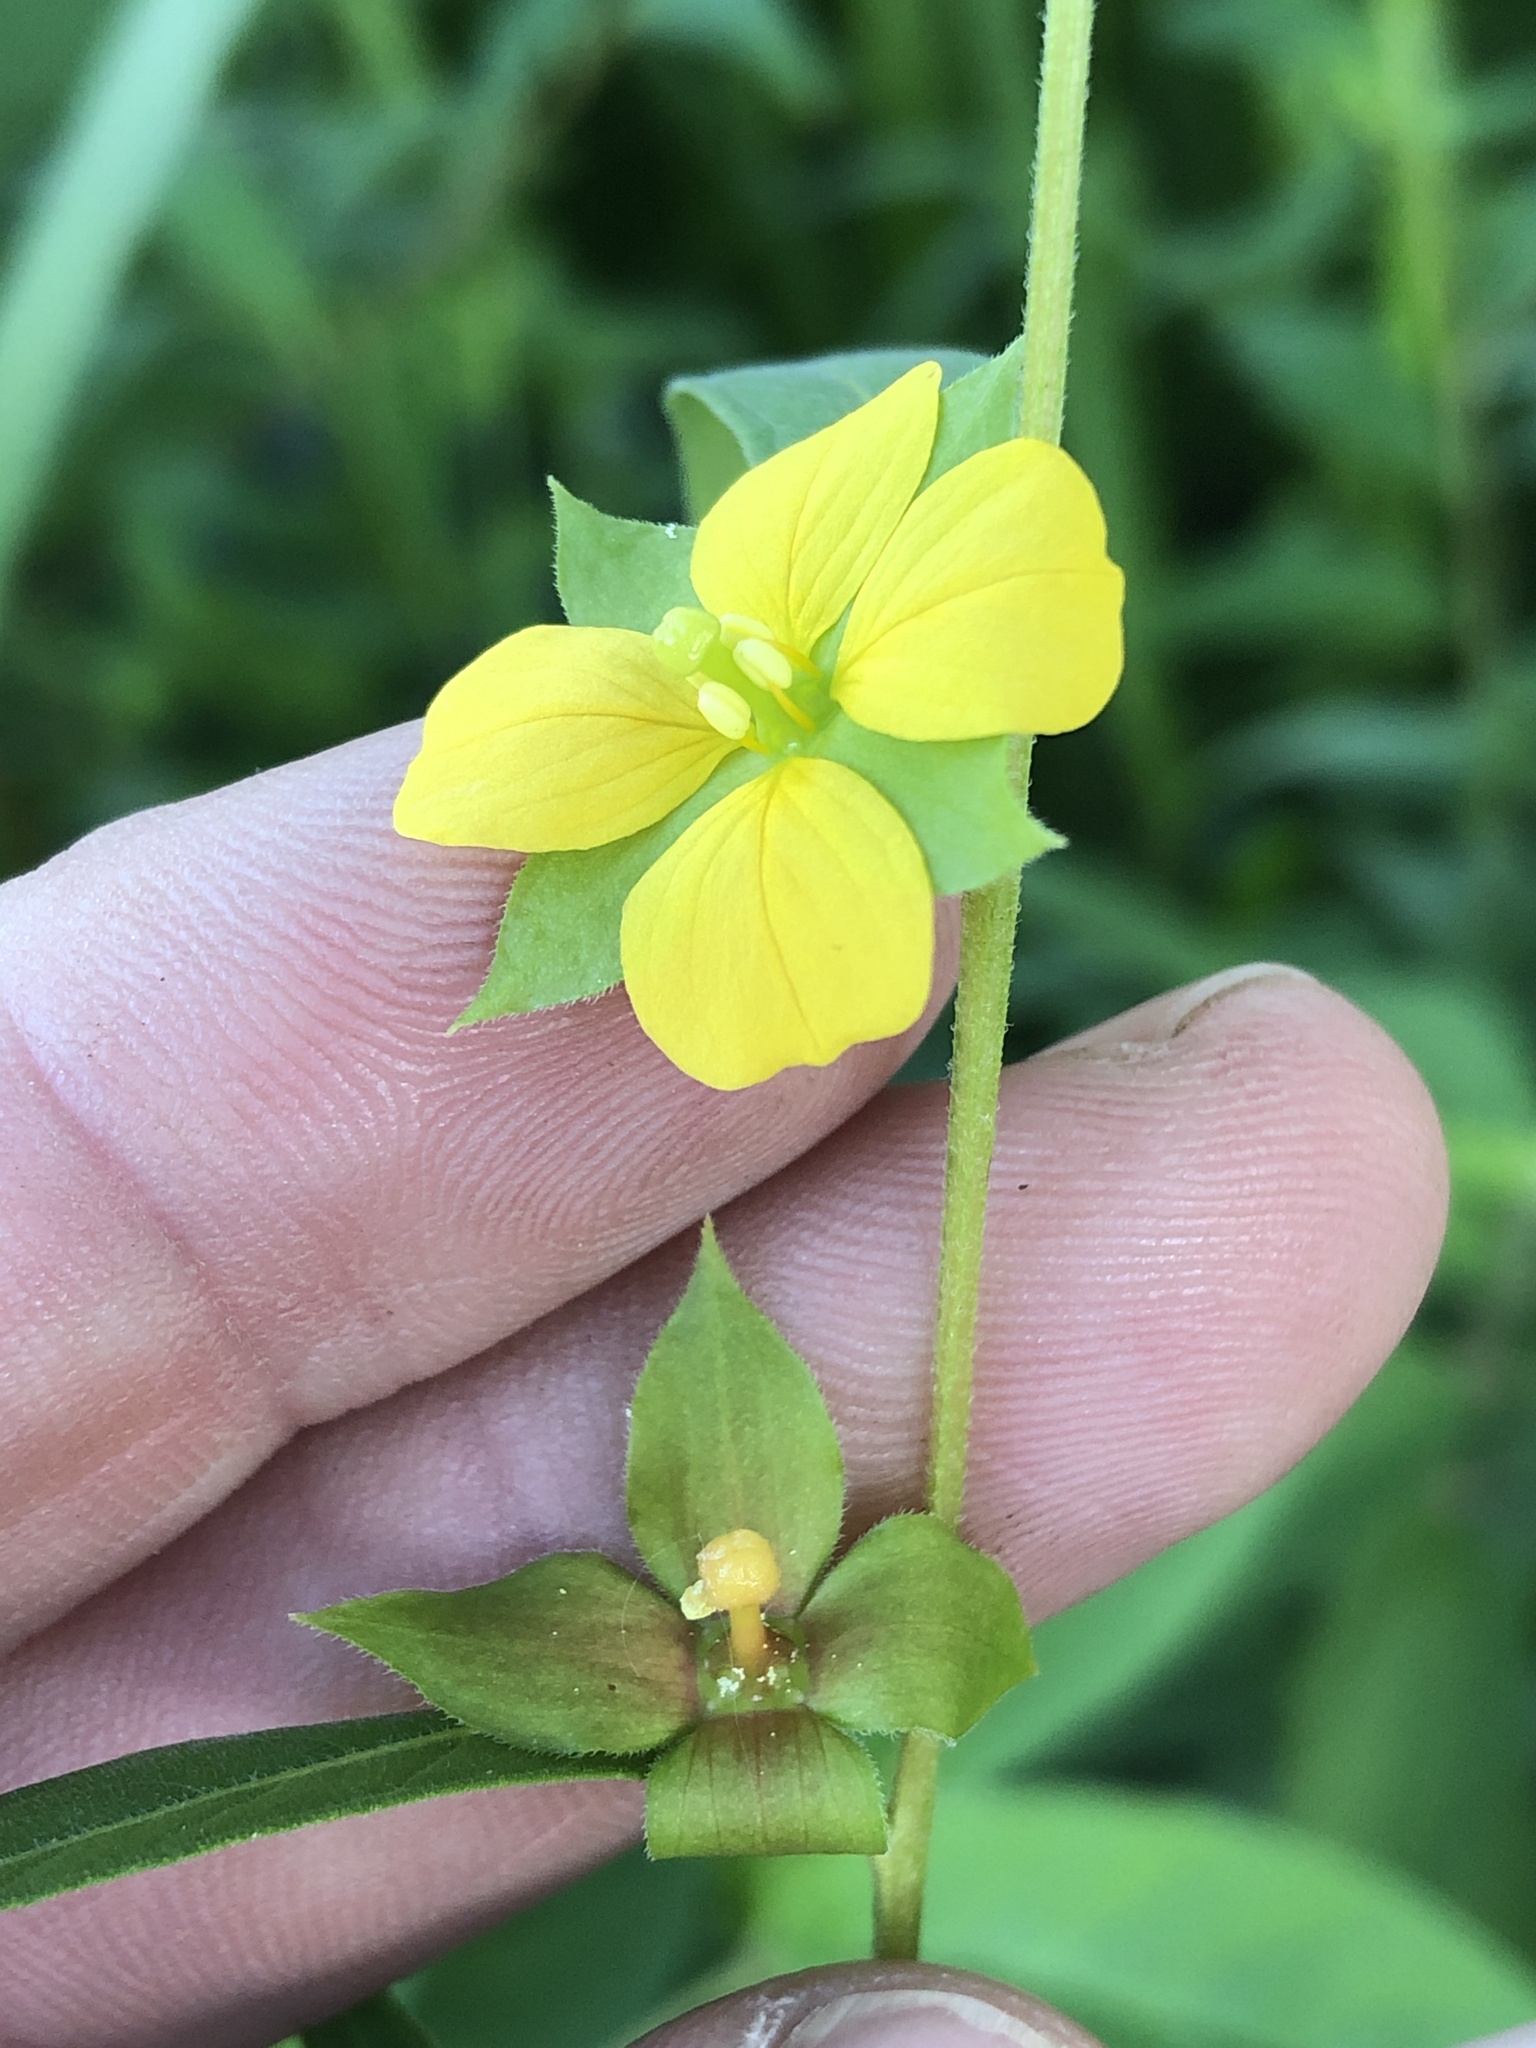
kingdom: Plantae
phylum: Tracheophyta
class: Magnoliopsida
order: Myrtales
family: Onagraceae
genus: Ludwigia
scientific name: Ludwigia alternifolia
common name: Rattlebox
